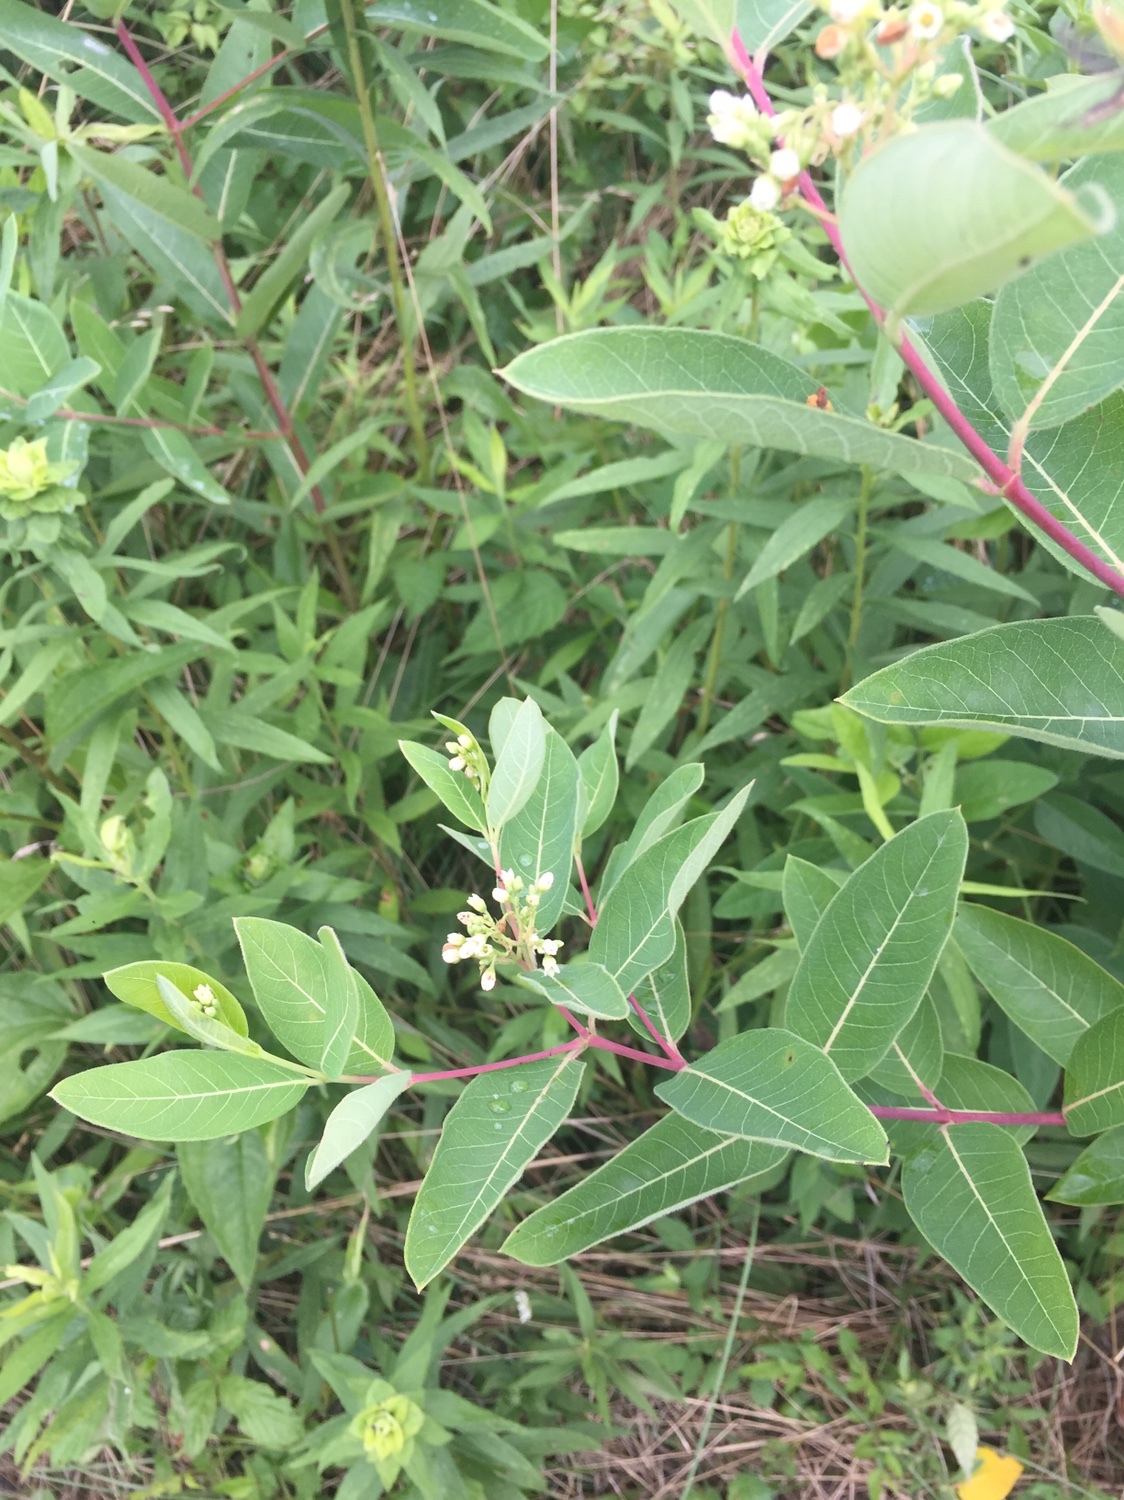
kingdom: Plantae
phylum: Tracheophyta
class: Magnoliopsida
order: Gentianales
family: Apocynaceae
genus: Apocynum
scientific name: Apocynum cannabinum
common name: Hemp dogbane
